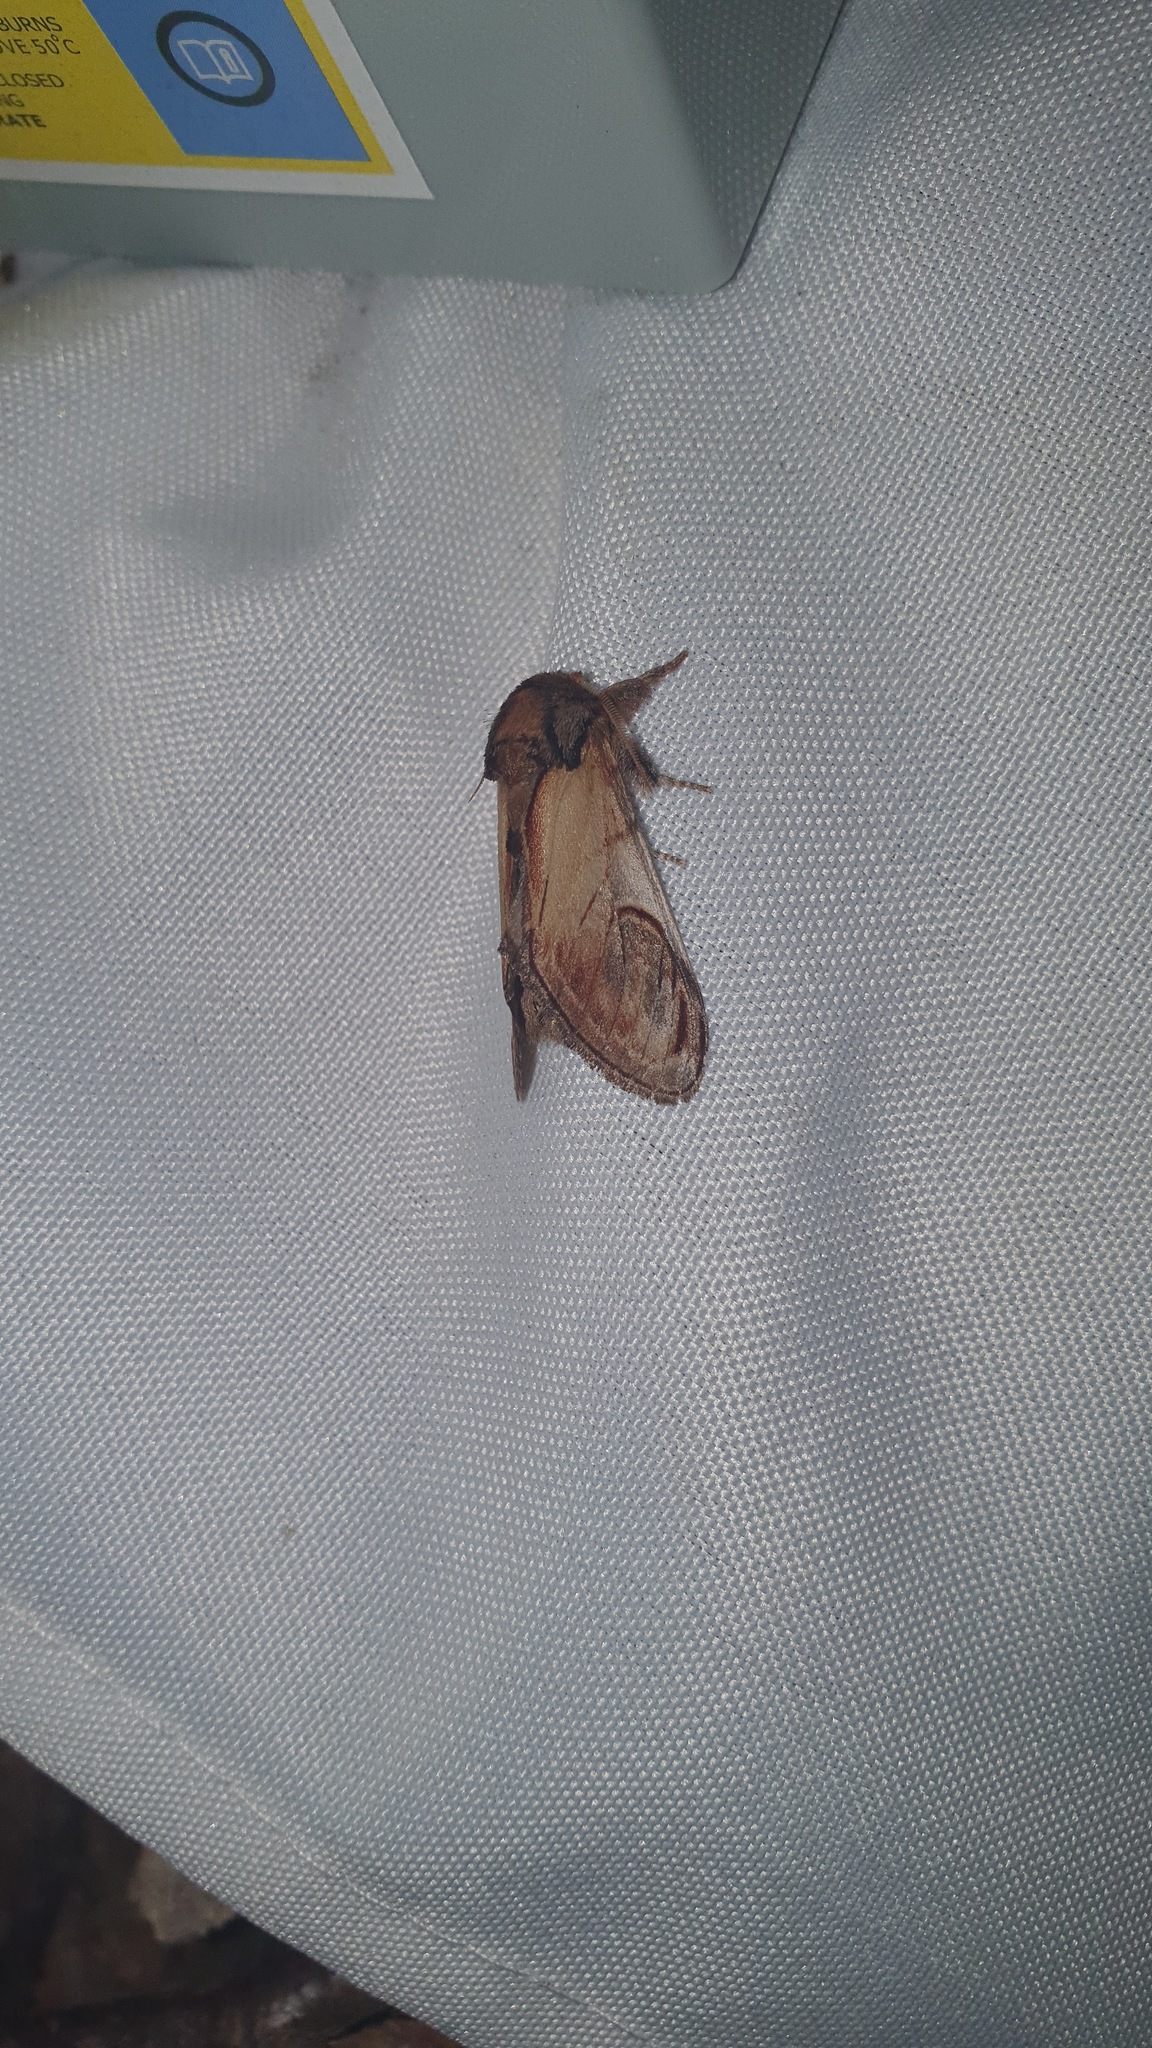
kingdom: Animalia
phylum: Arthropoda
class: Insecta
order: Lepidoptera
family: Notodontidae
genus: Notodonta
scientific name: Notodonta ziczac
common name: Pebble prominent
